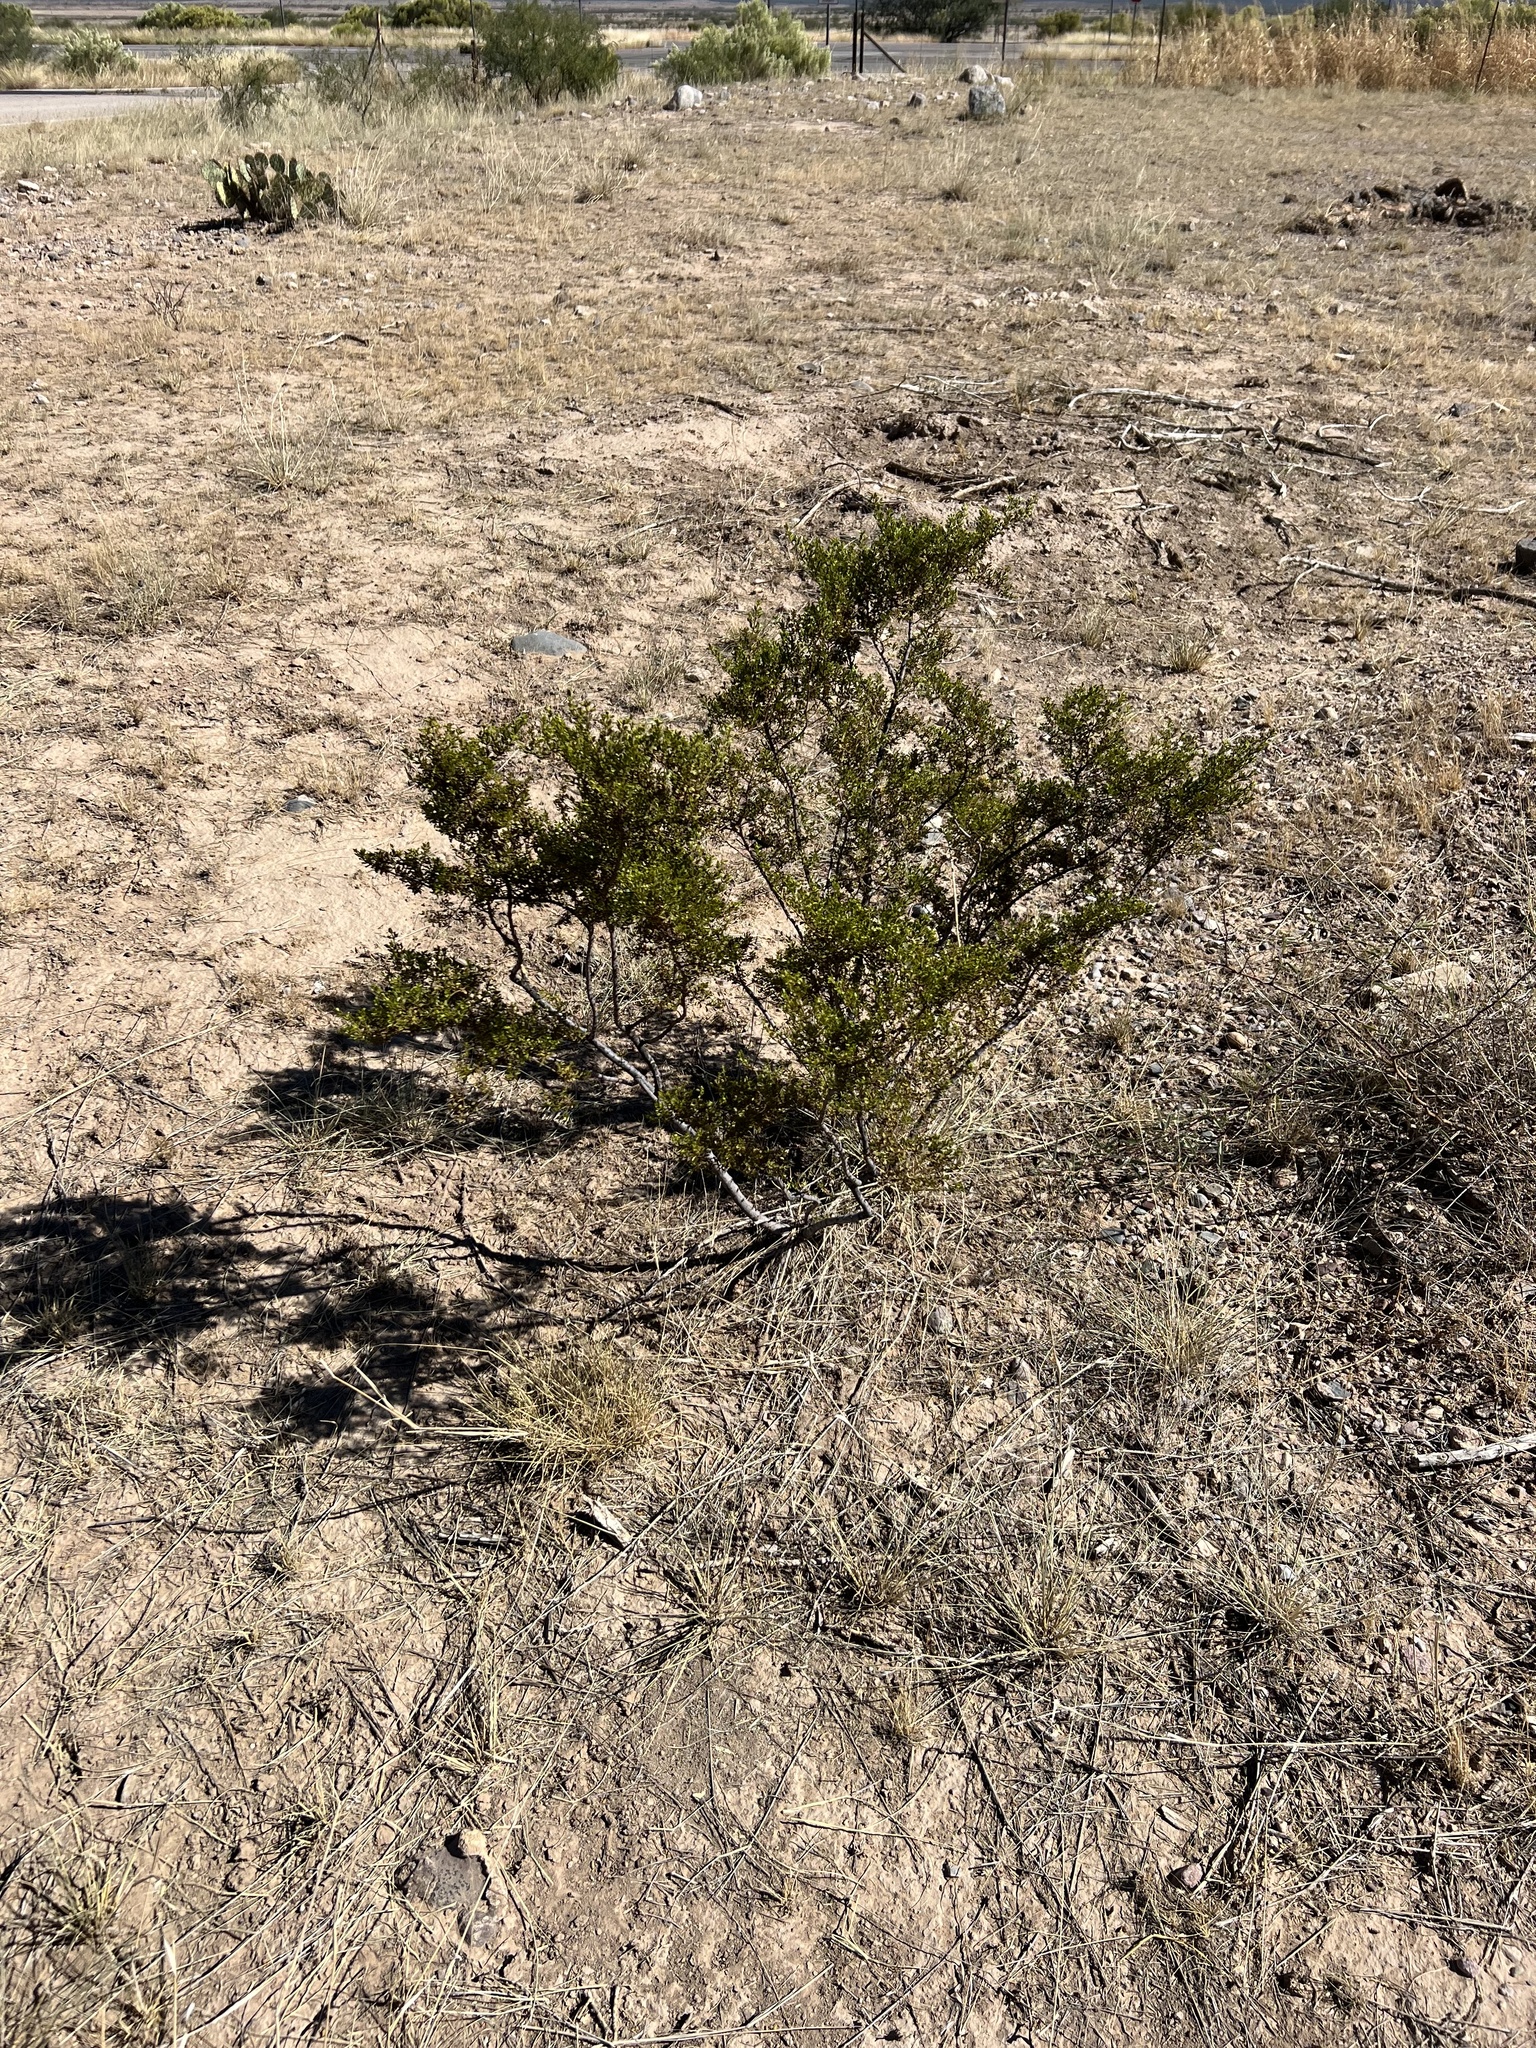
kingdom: Plantae
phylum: Tracheophyta
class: Magnoliopsida
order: Zygophyllales
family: Zygophyllaceae
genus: Larrea
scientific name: Larrea tridentata
